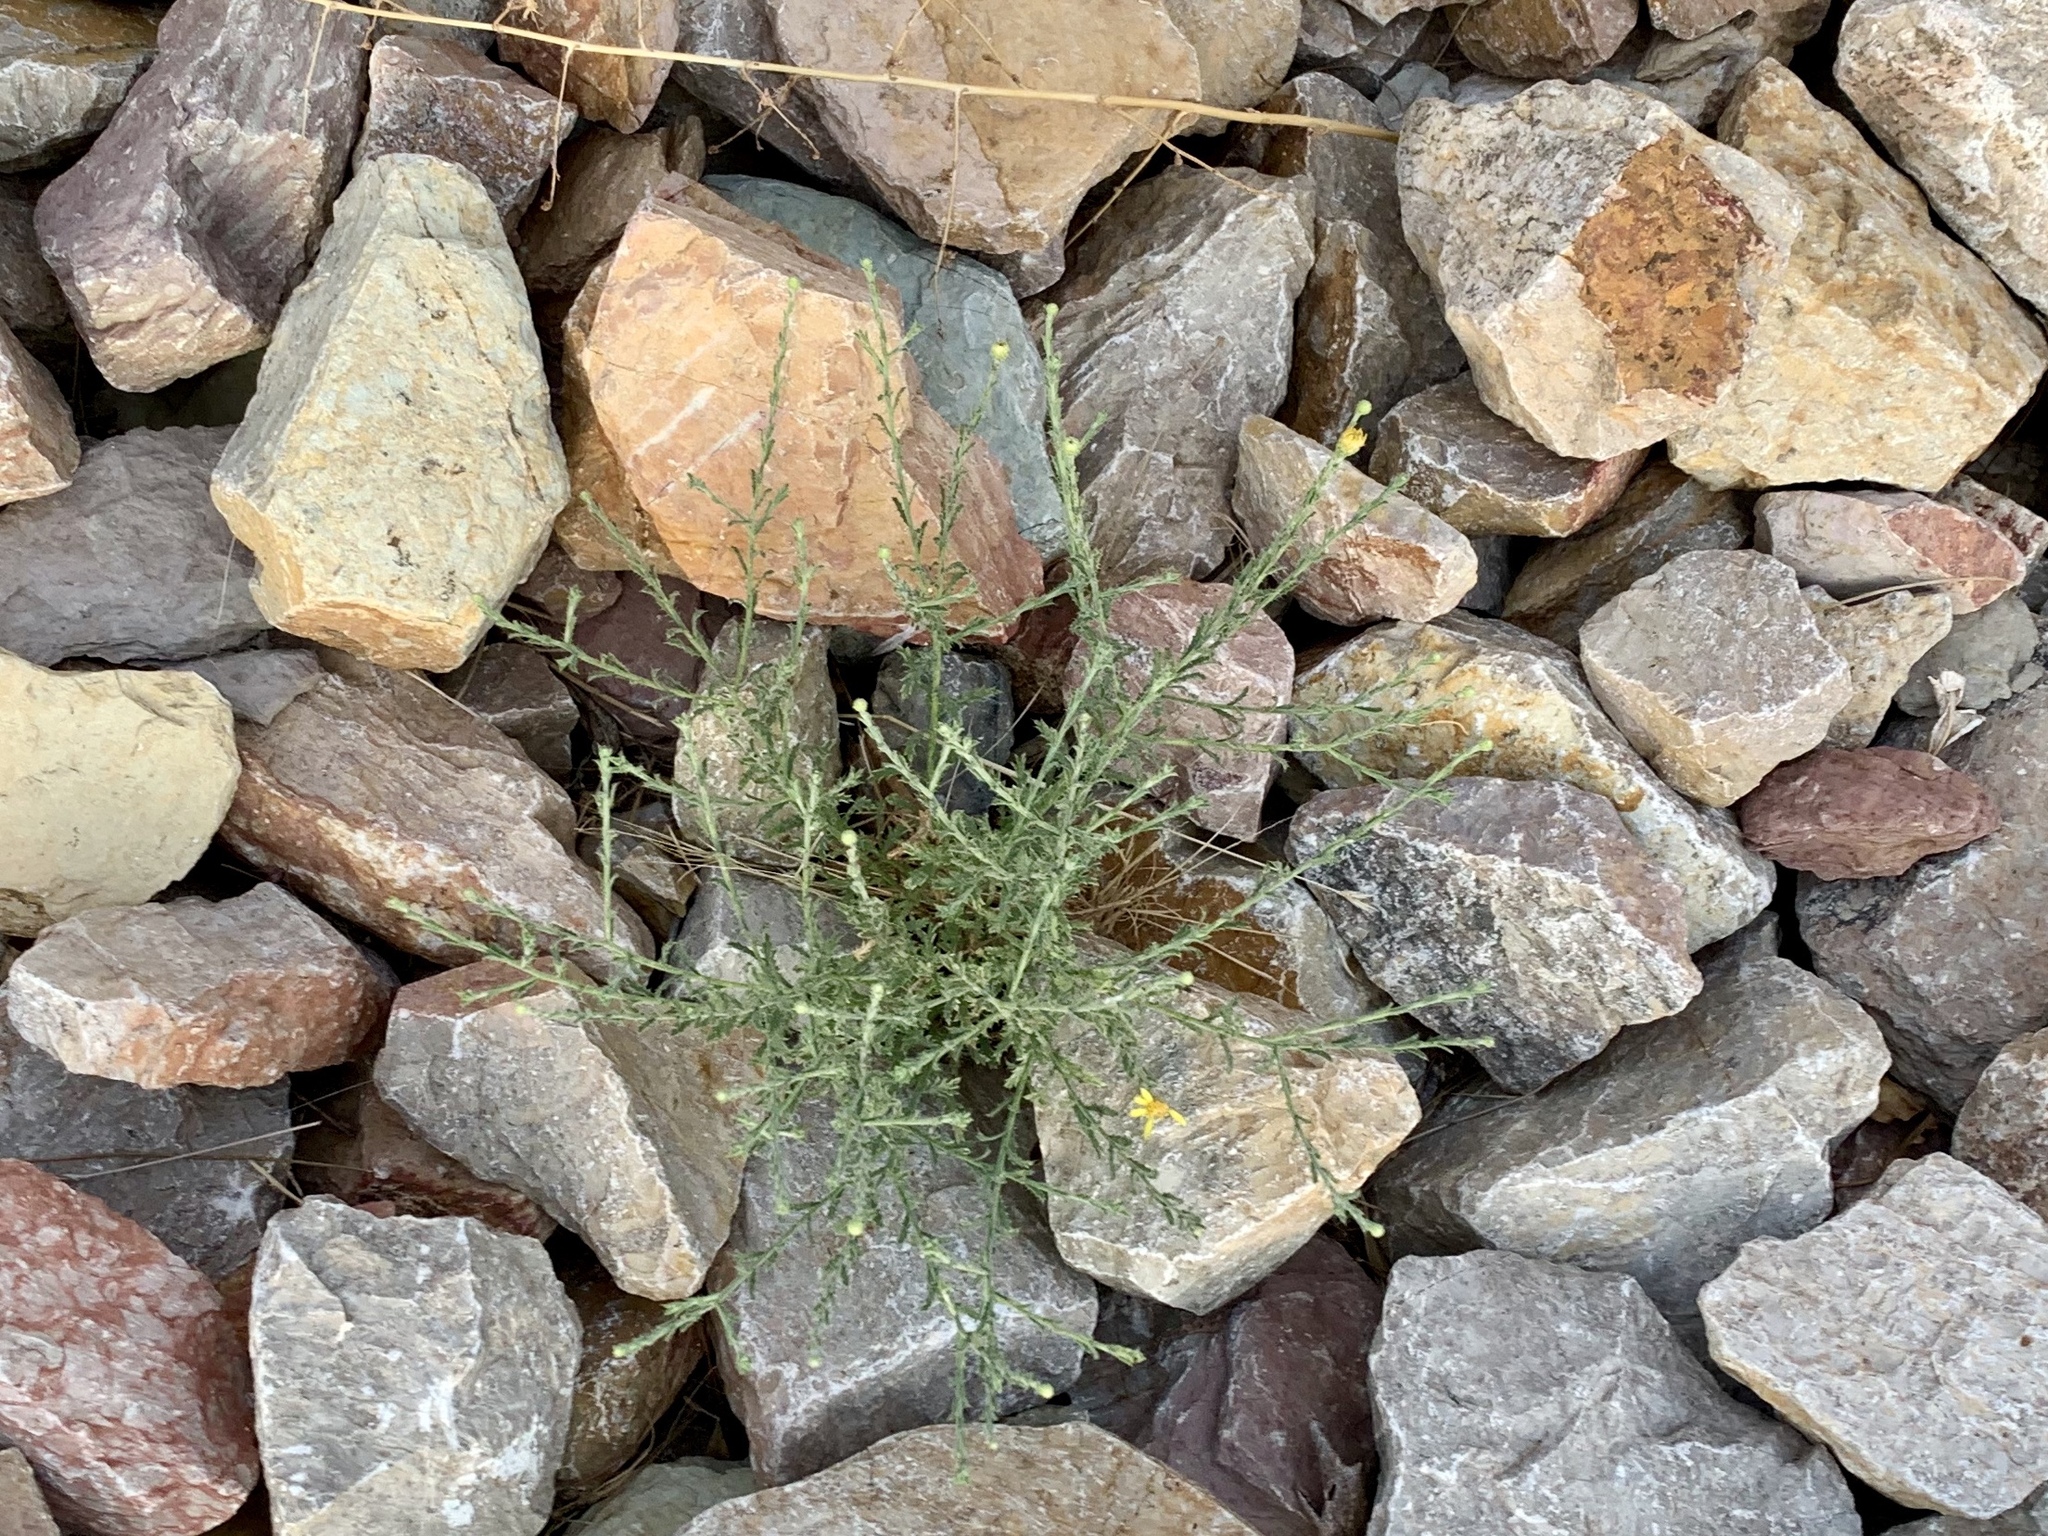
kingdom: Plantae
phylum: Tracheophyta
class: Magnoliopsida
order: Asterales
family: Asteraceae
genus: Xanthisma
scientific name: Xanthisma spinulosum
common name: Spiny goldenweed
